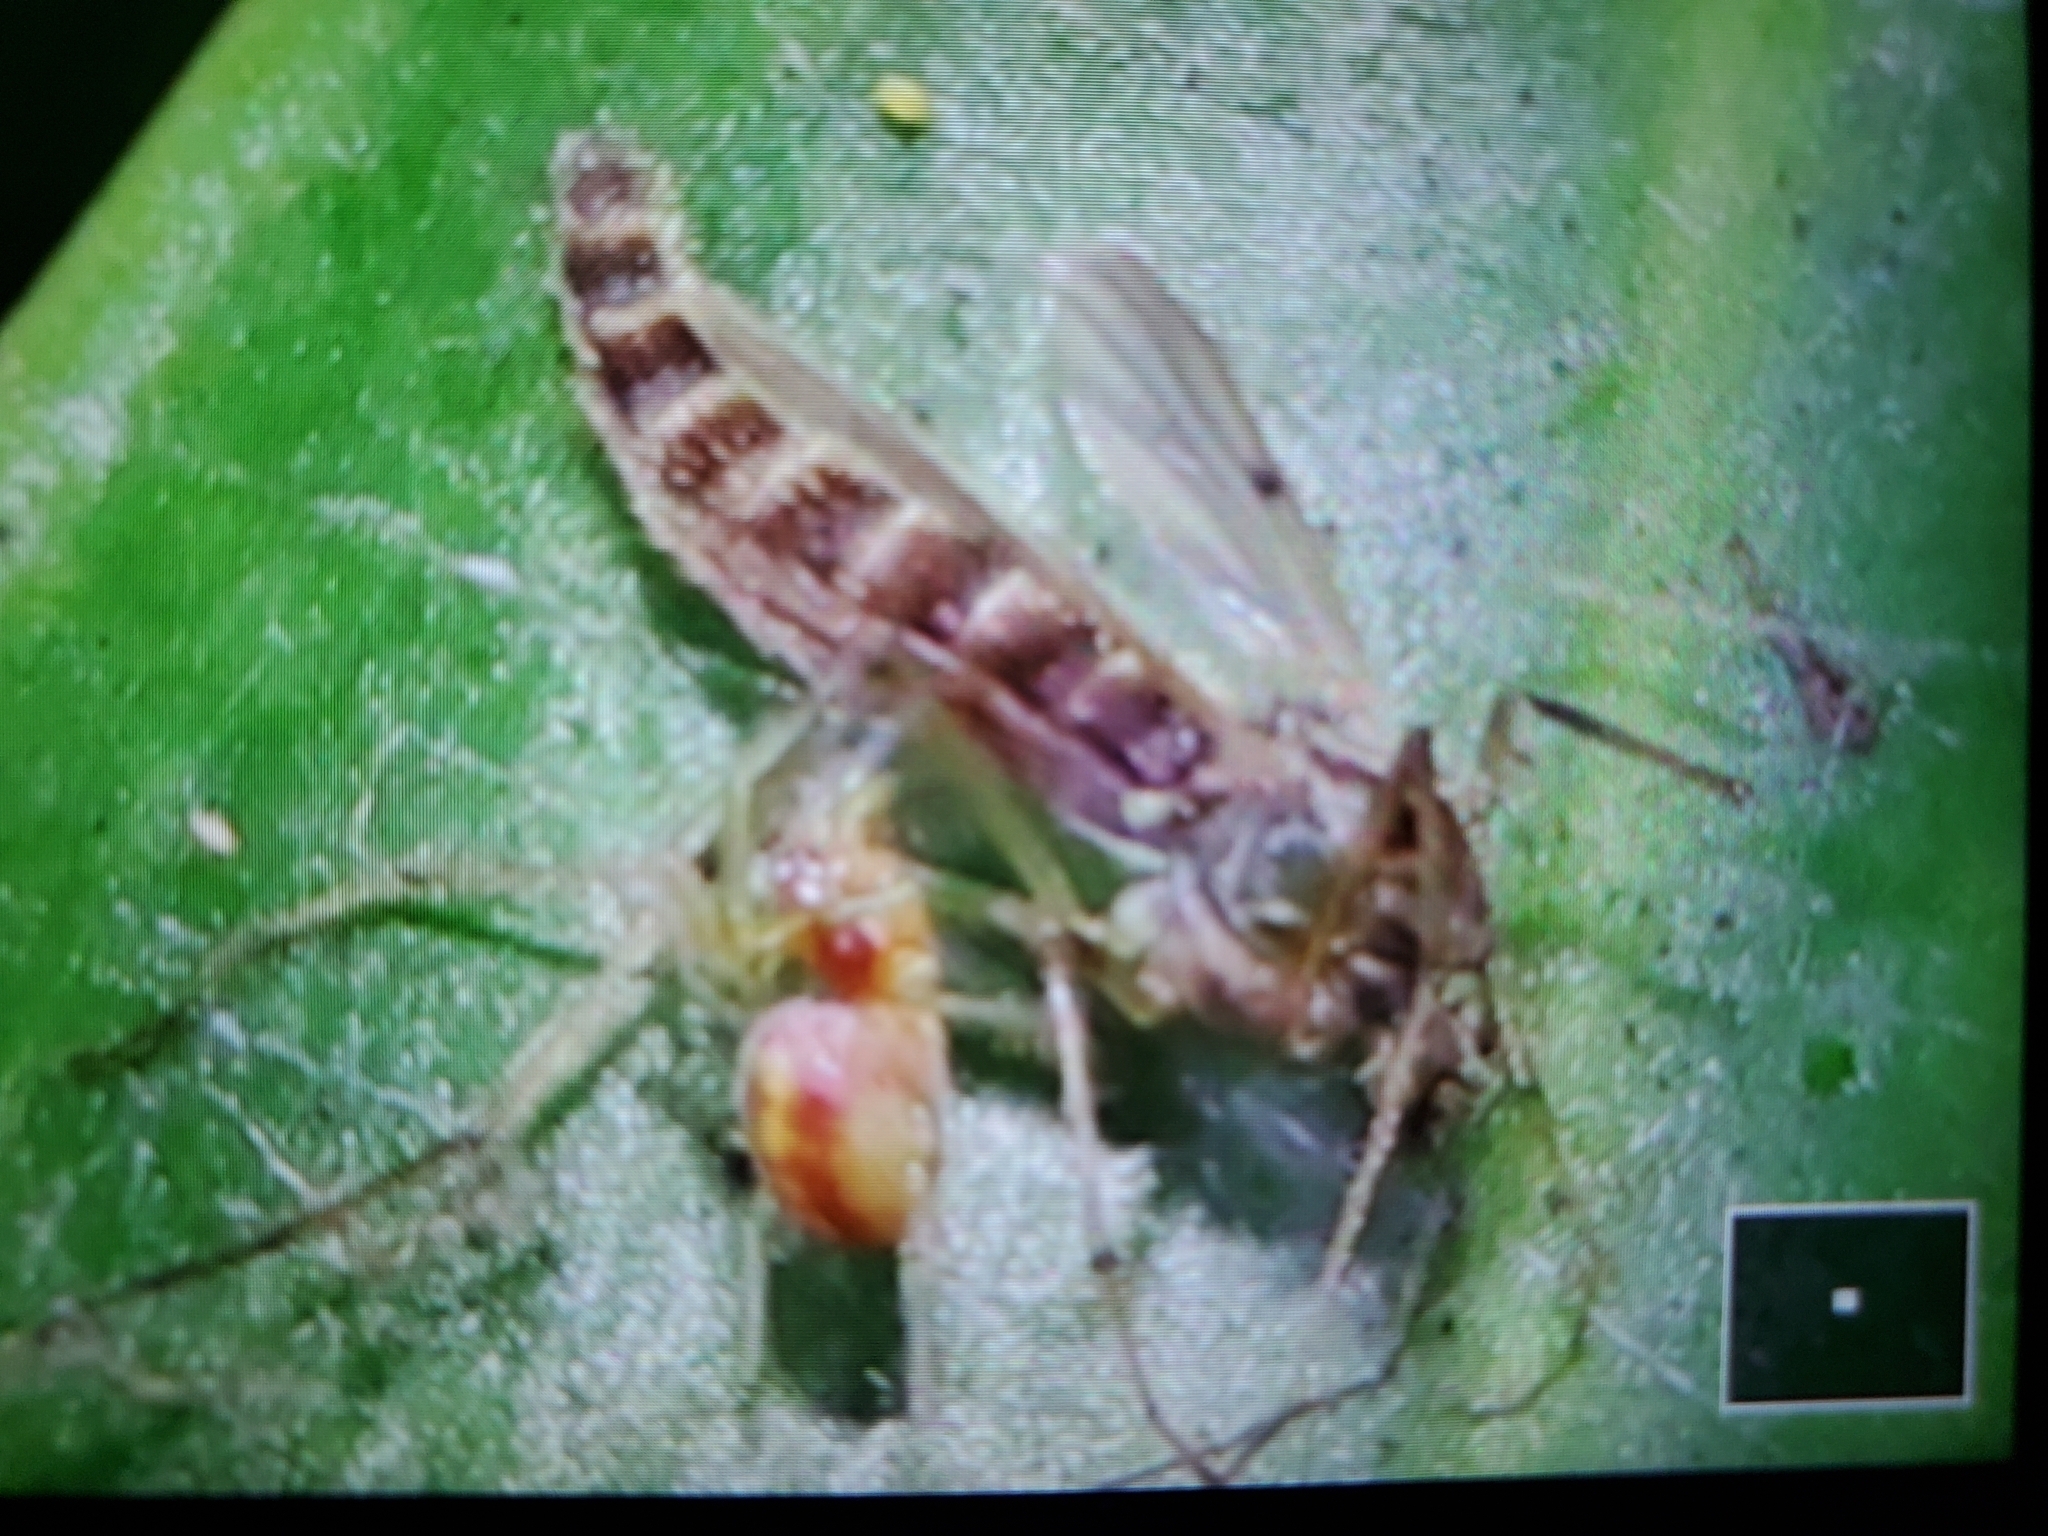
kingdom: Animalia
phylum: Arthropoda
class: Arachnida
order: Araneae
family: Dictynidae
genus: Emblyna
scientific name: Emblyna florens
